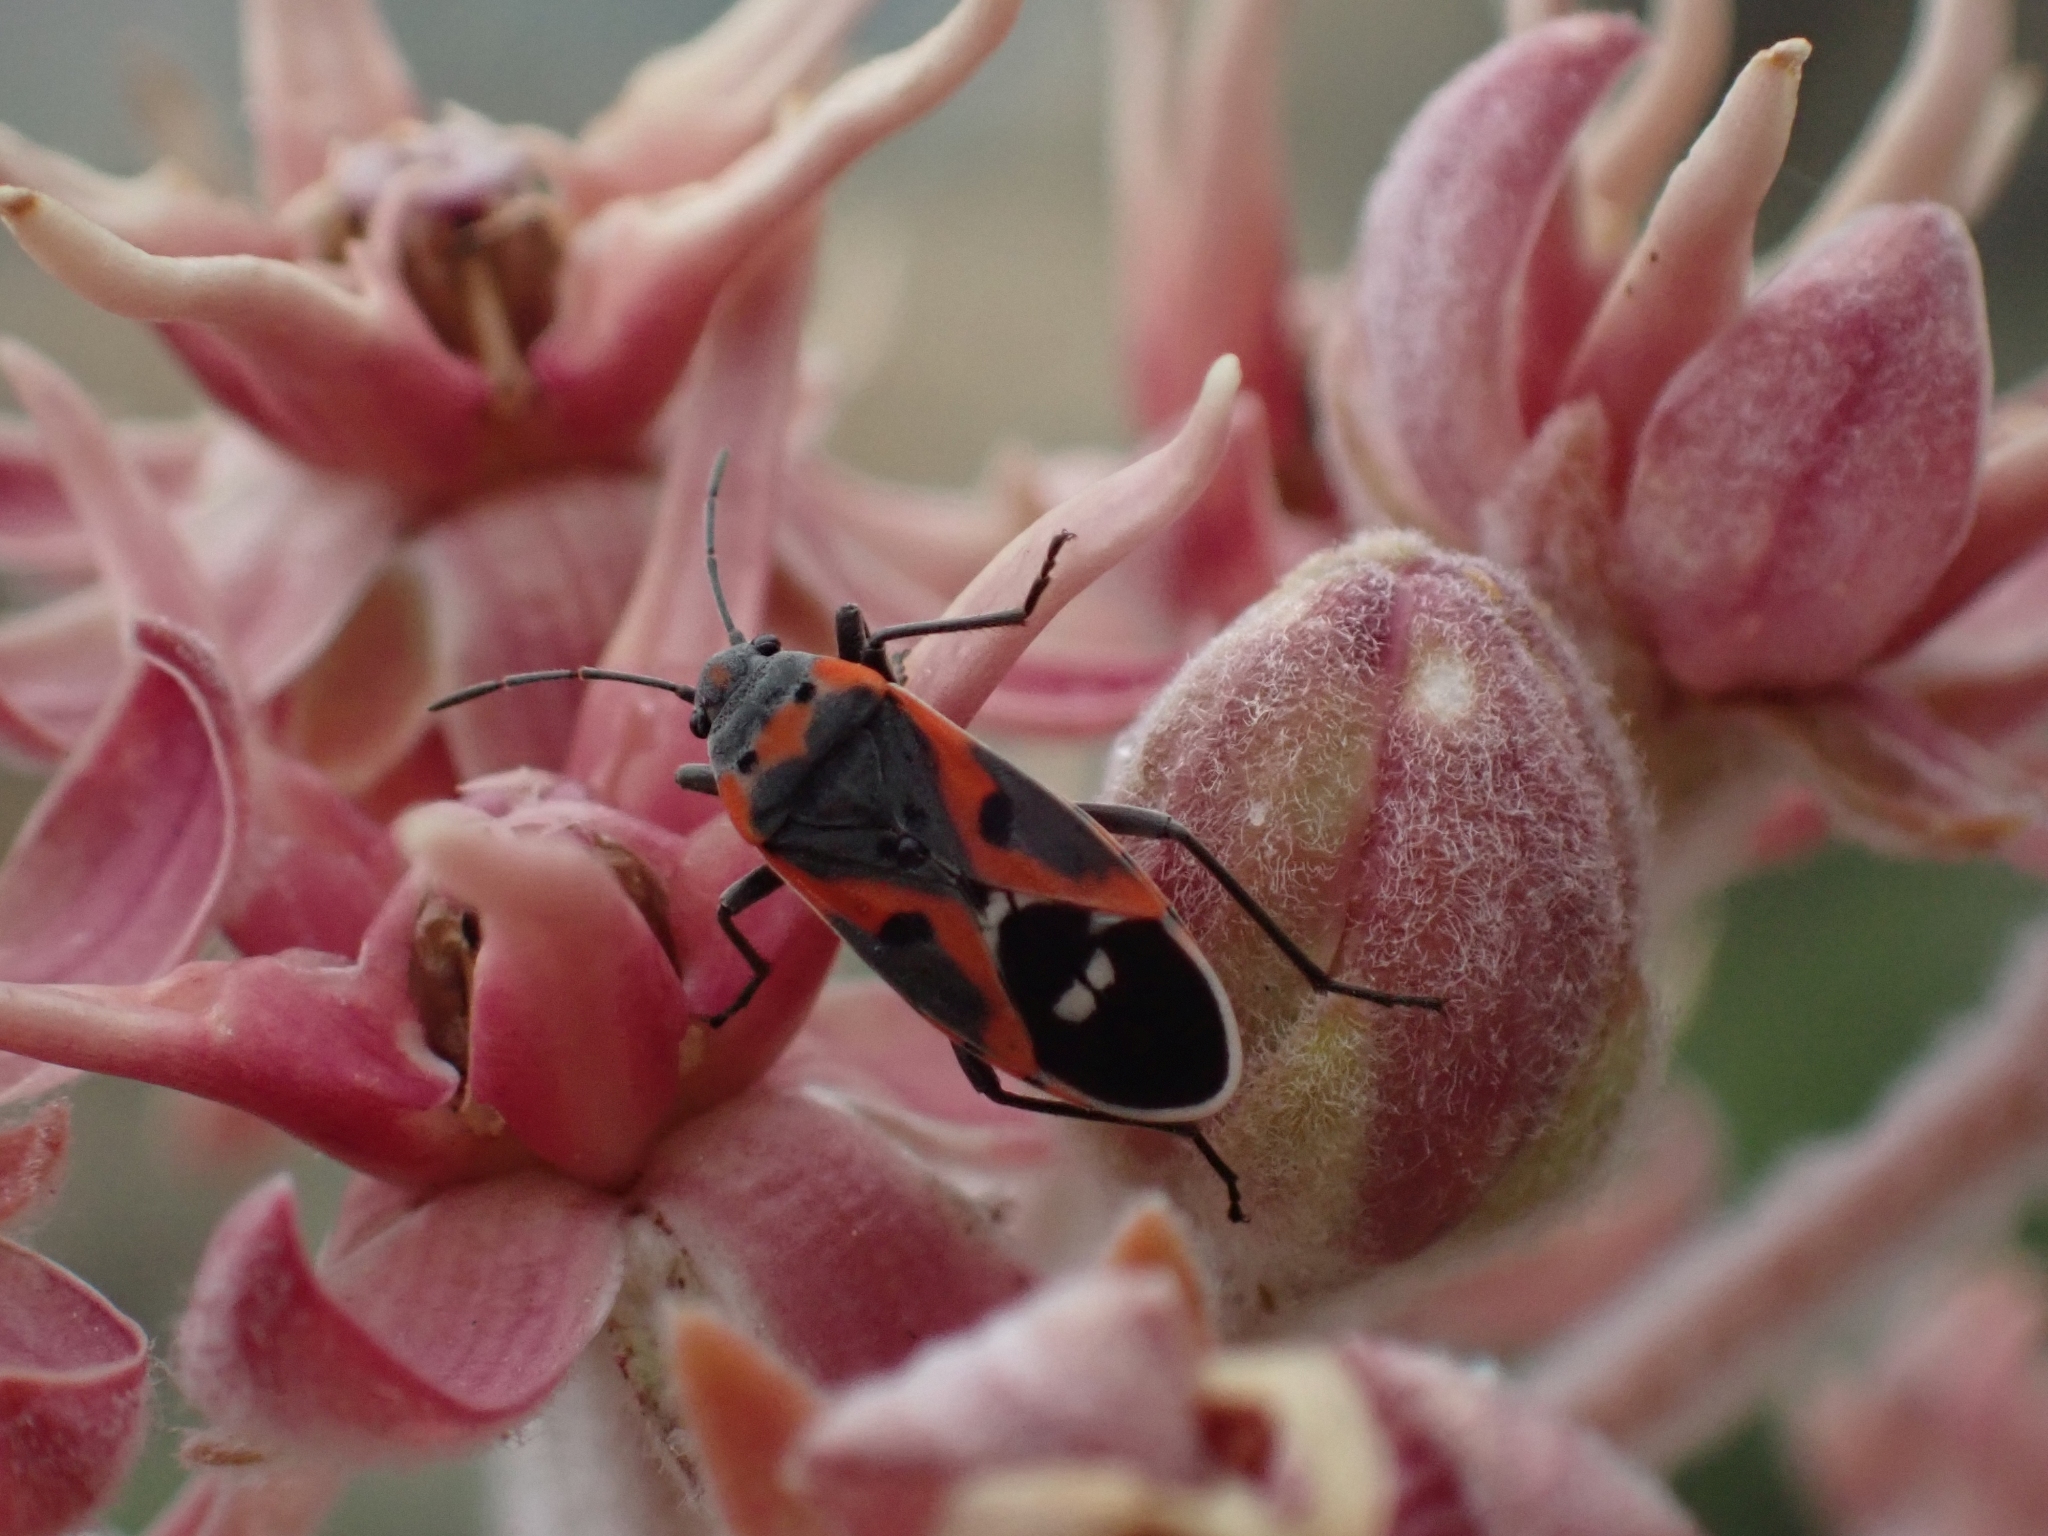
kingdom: Animalia
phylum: Arthropoda
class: Insecta
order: Hemiptera
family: Lygaeidae
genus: Lygaeus
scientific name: Lygaeus kalmii
